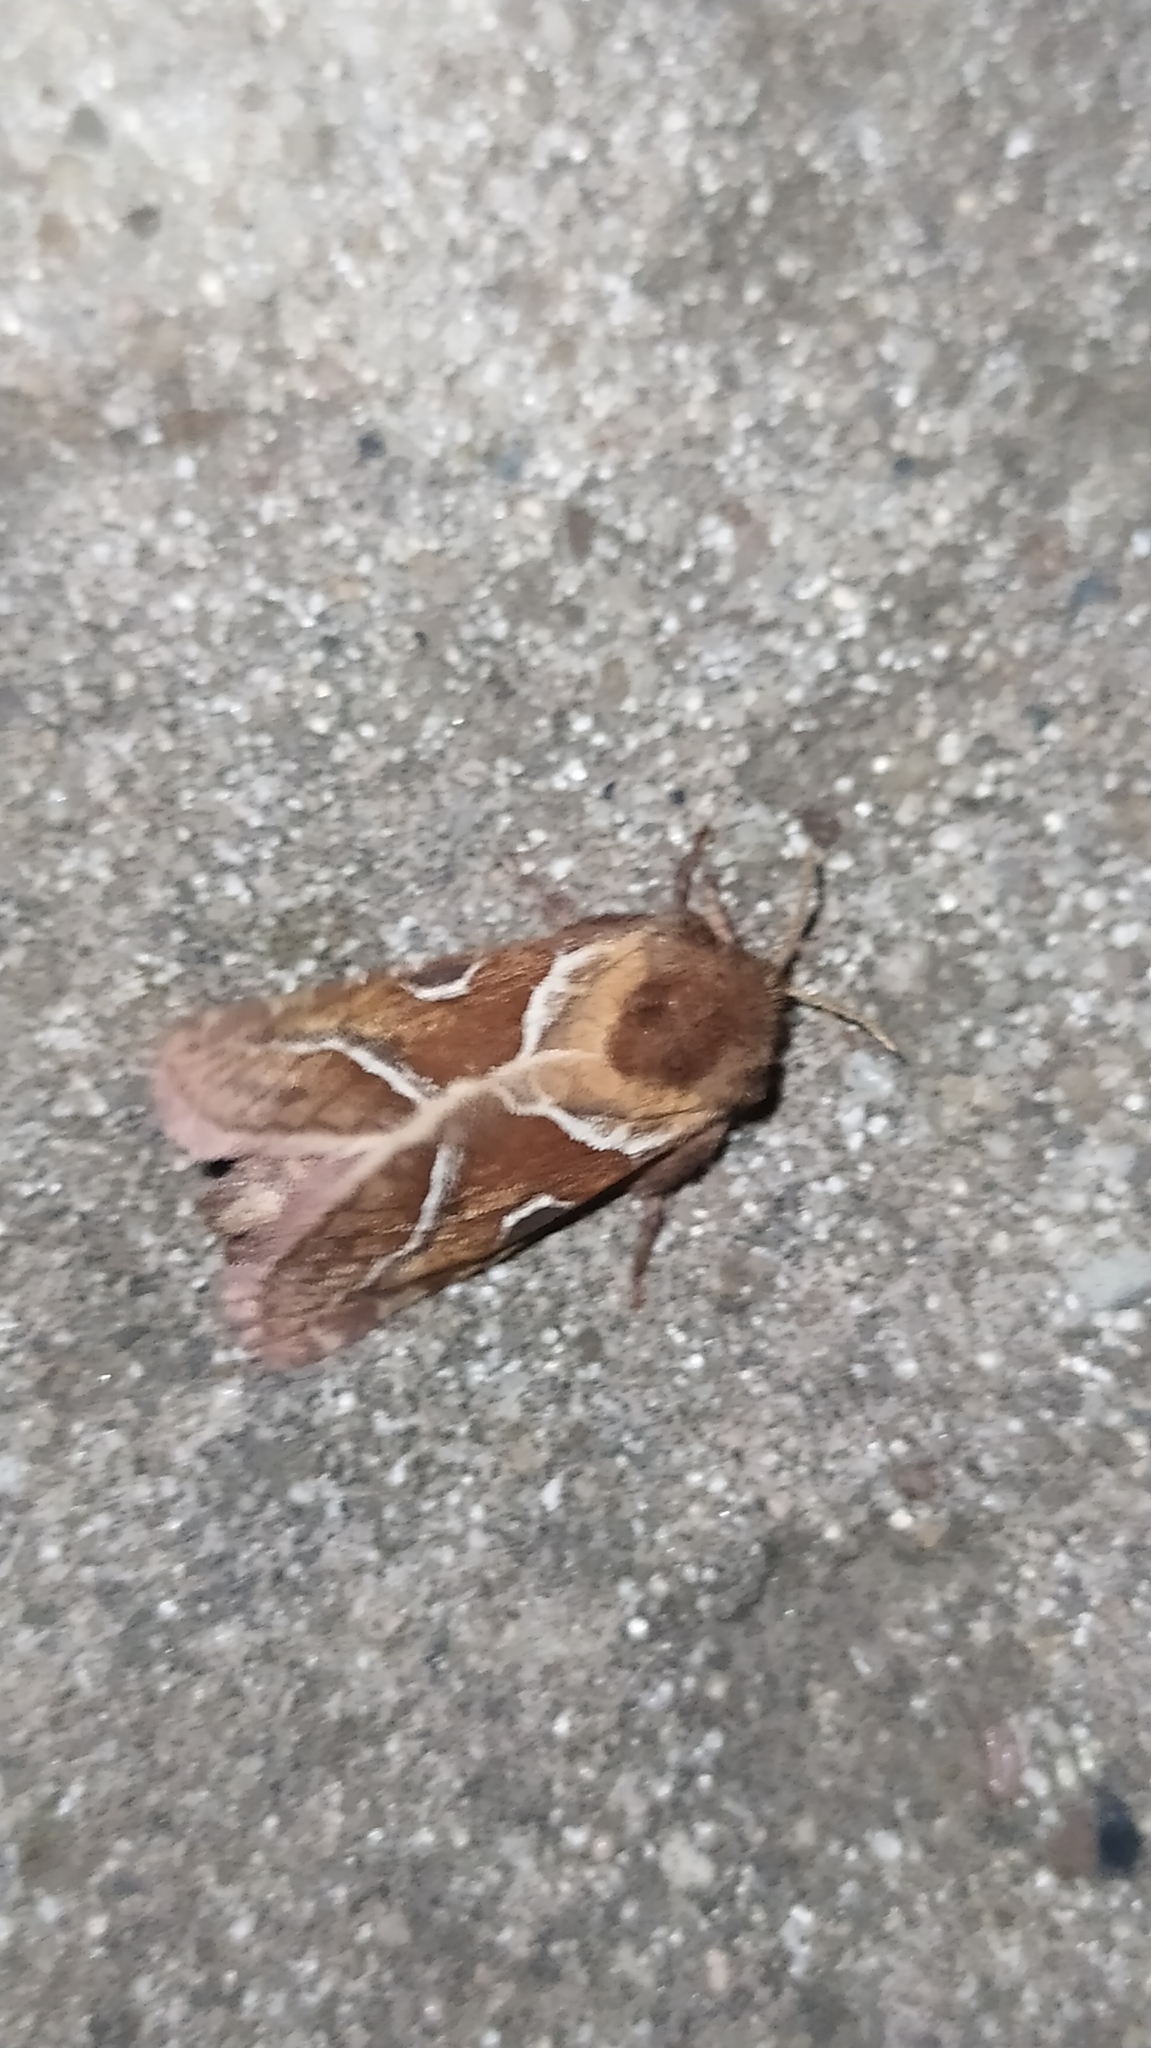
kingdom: Animalia
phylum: Arthropoda
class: Insecta
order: Lepidoptera
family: Hepialidae
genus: Triodia
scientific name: Triodia sylvina
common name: Orange swift
